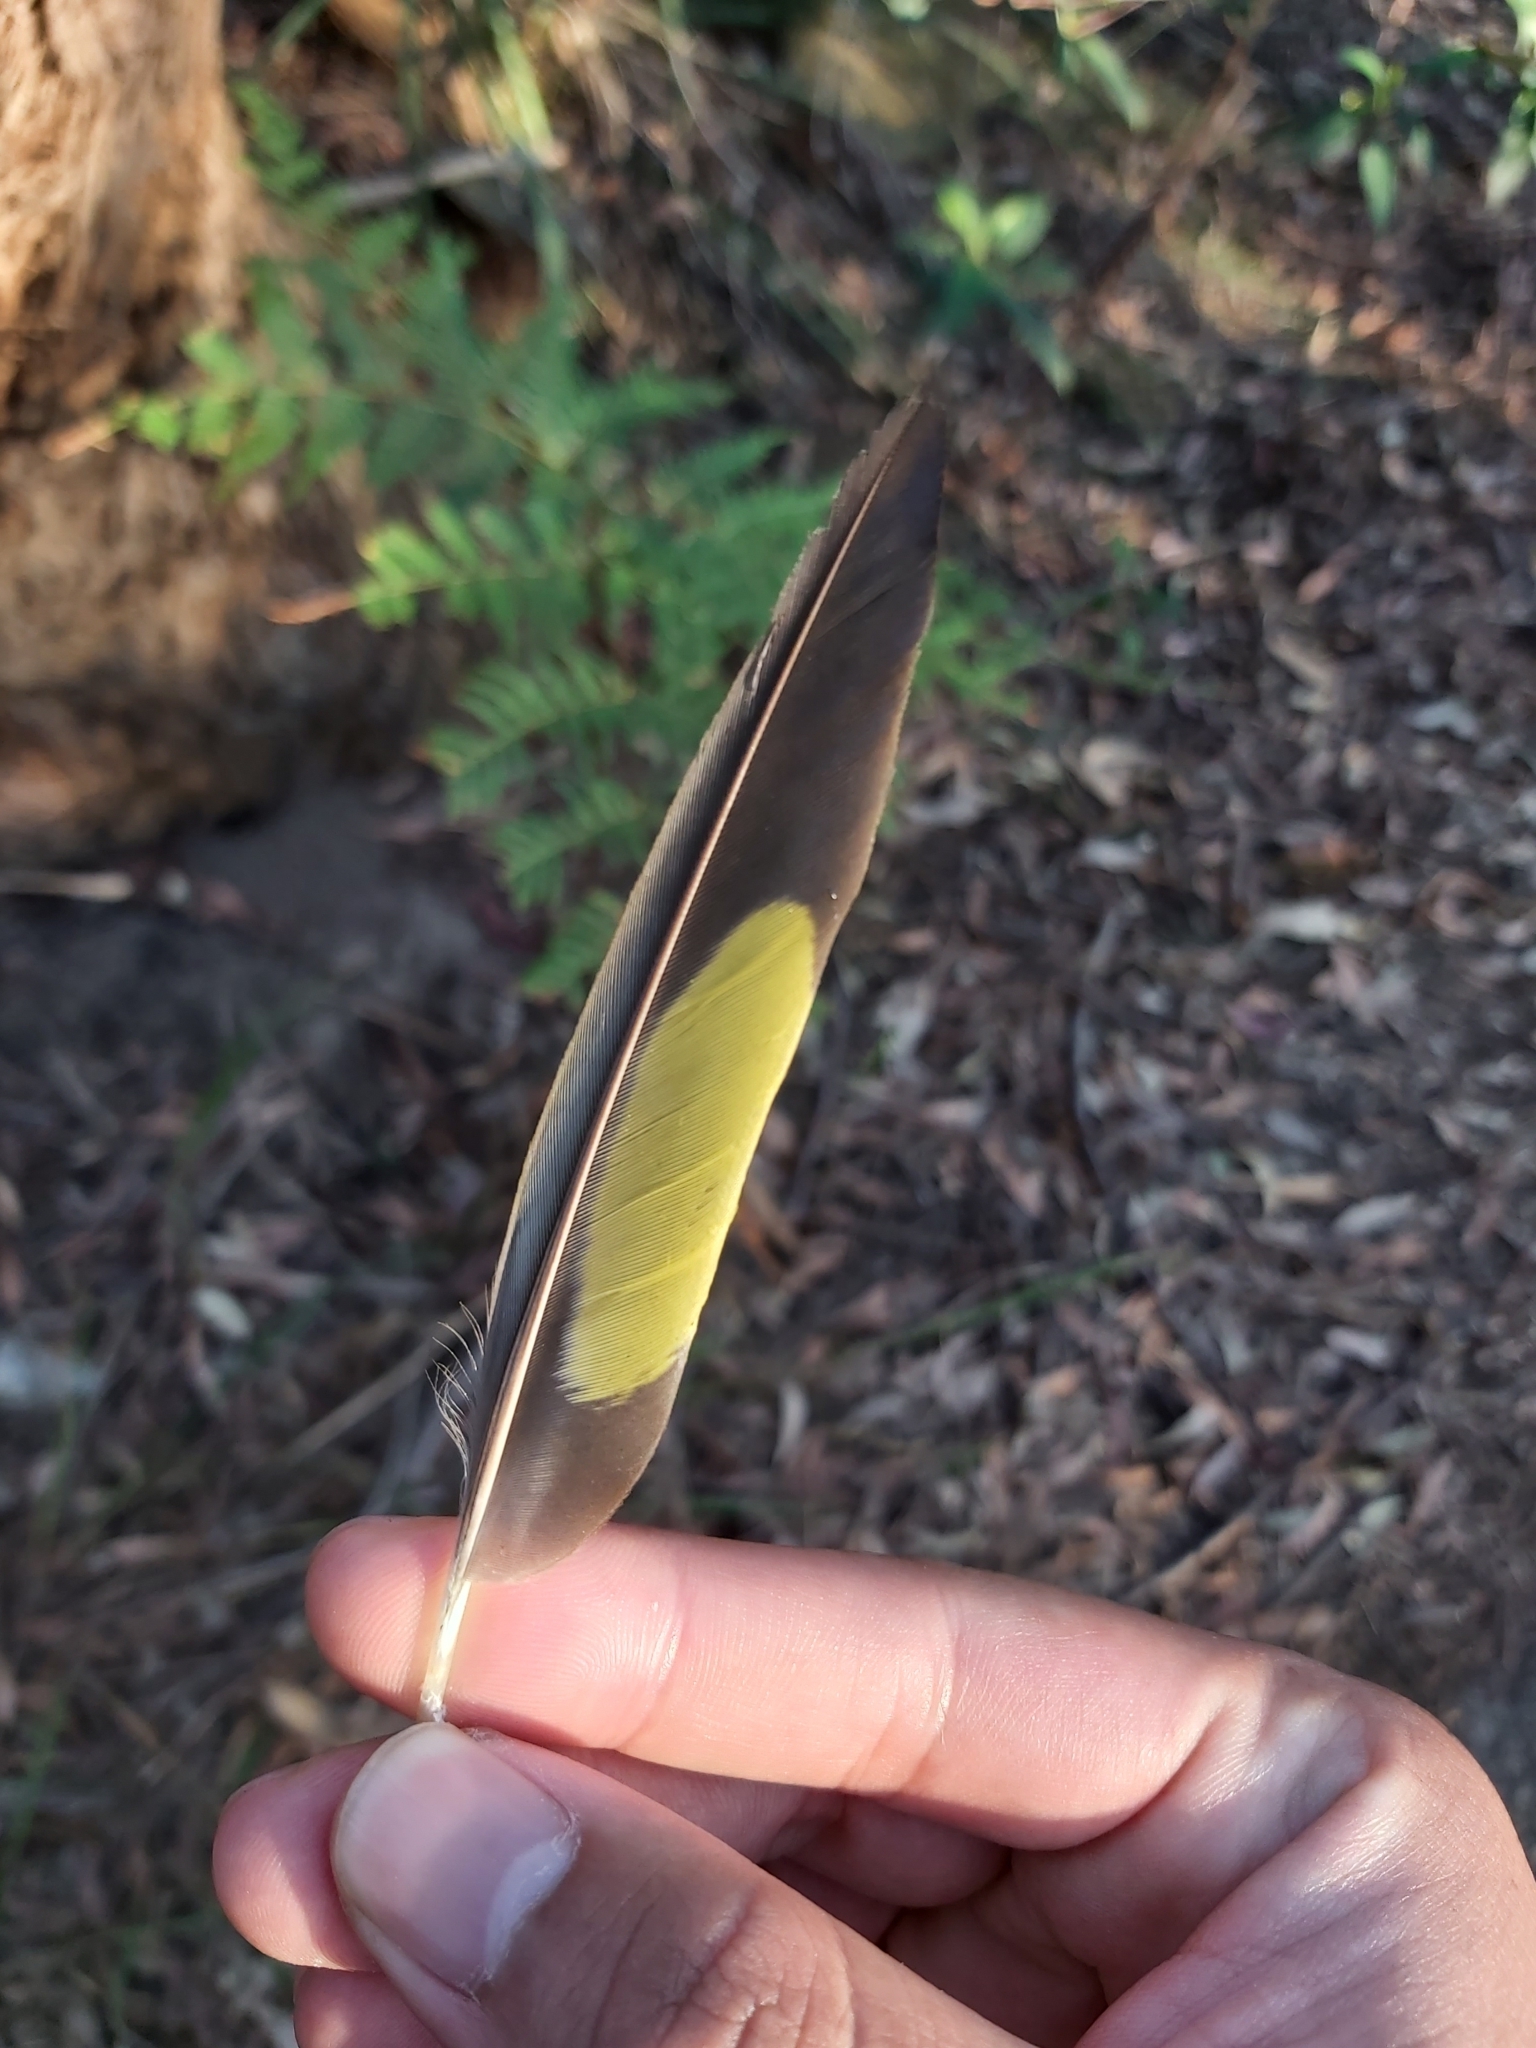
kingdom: Animalia
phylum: Chordata
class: Aves
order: Psittaciformes
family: Psittacidae
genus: Trichoglossus
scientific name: Trichoglossus haematodus
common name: Coconut lorikeet
